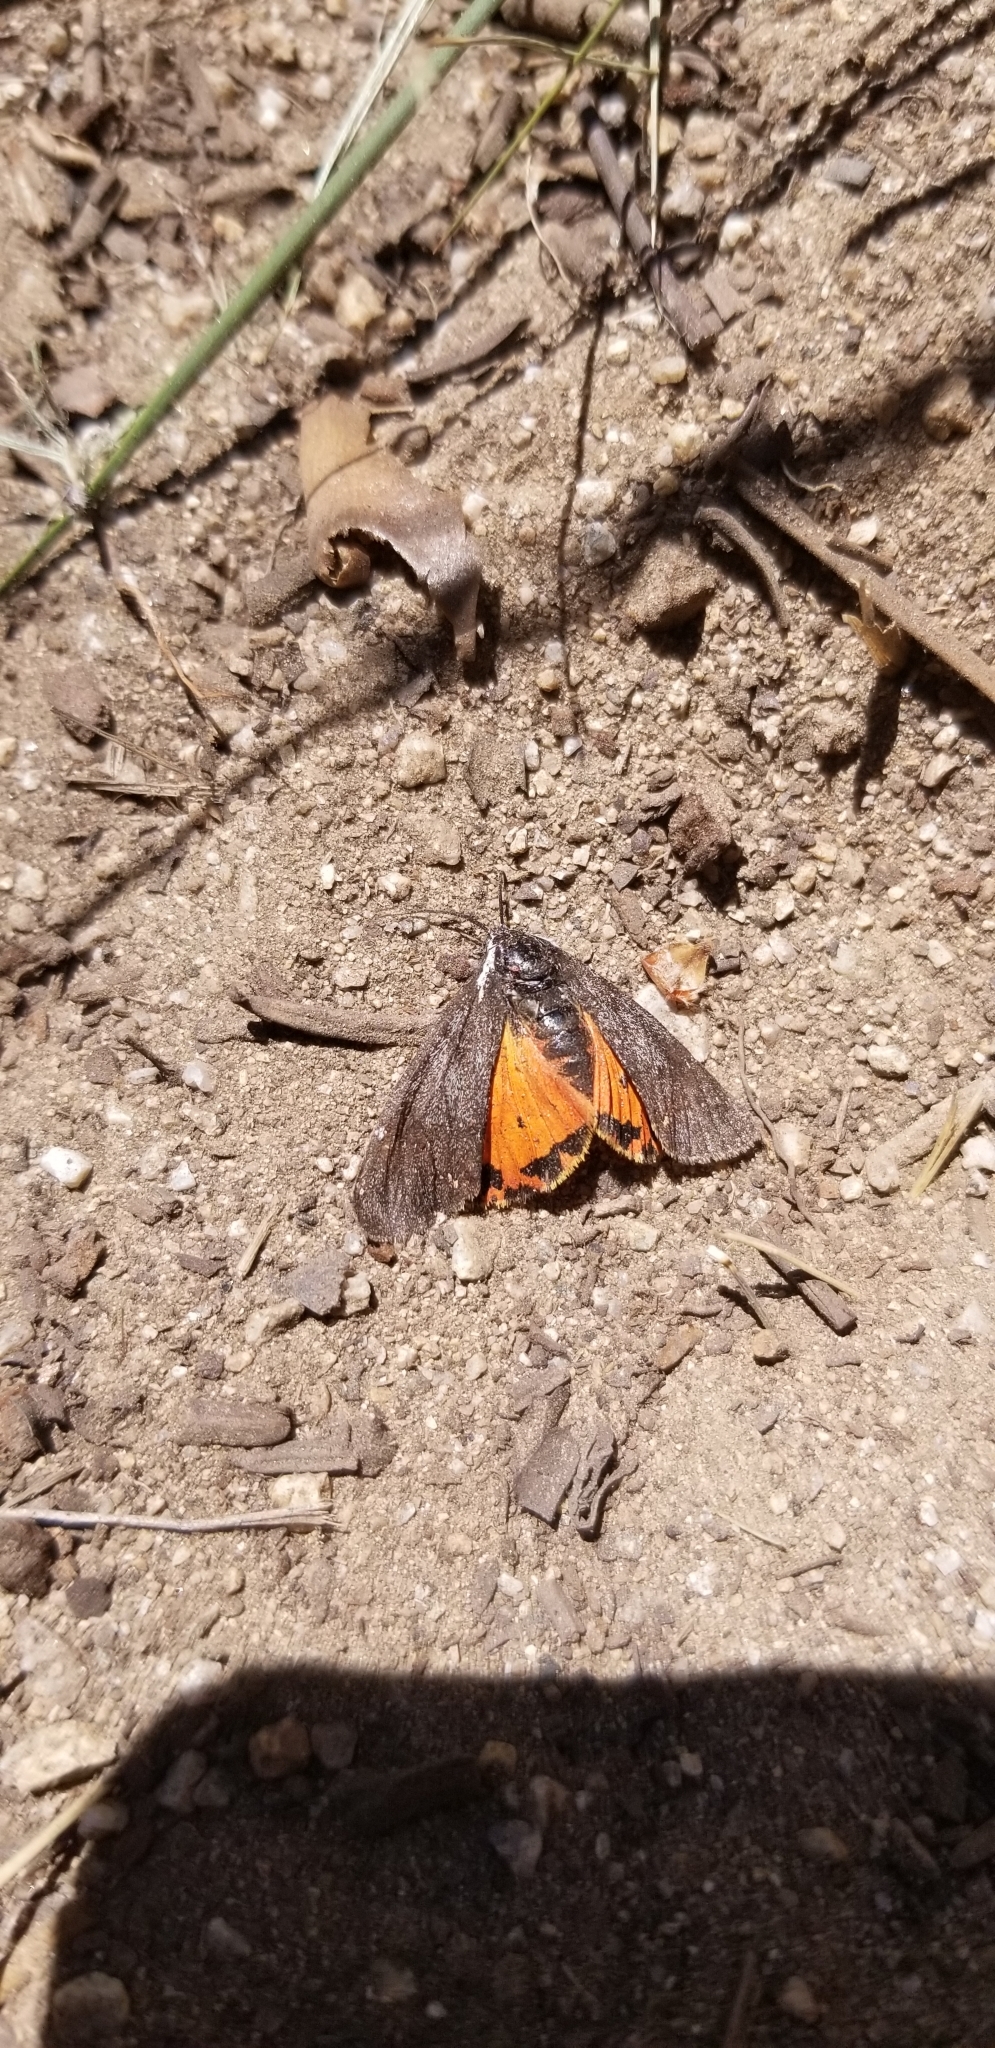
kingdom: Animalia
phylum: Arthropoda
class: Insecta
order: Lepidoptera
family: Erebidae
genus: Leptarctia
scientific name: Leptarctia californiae
